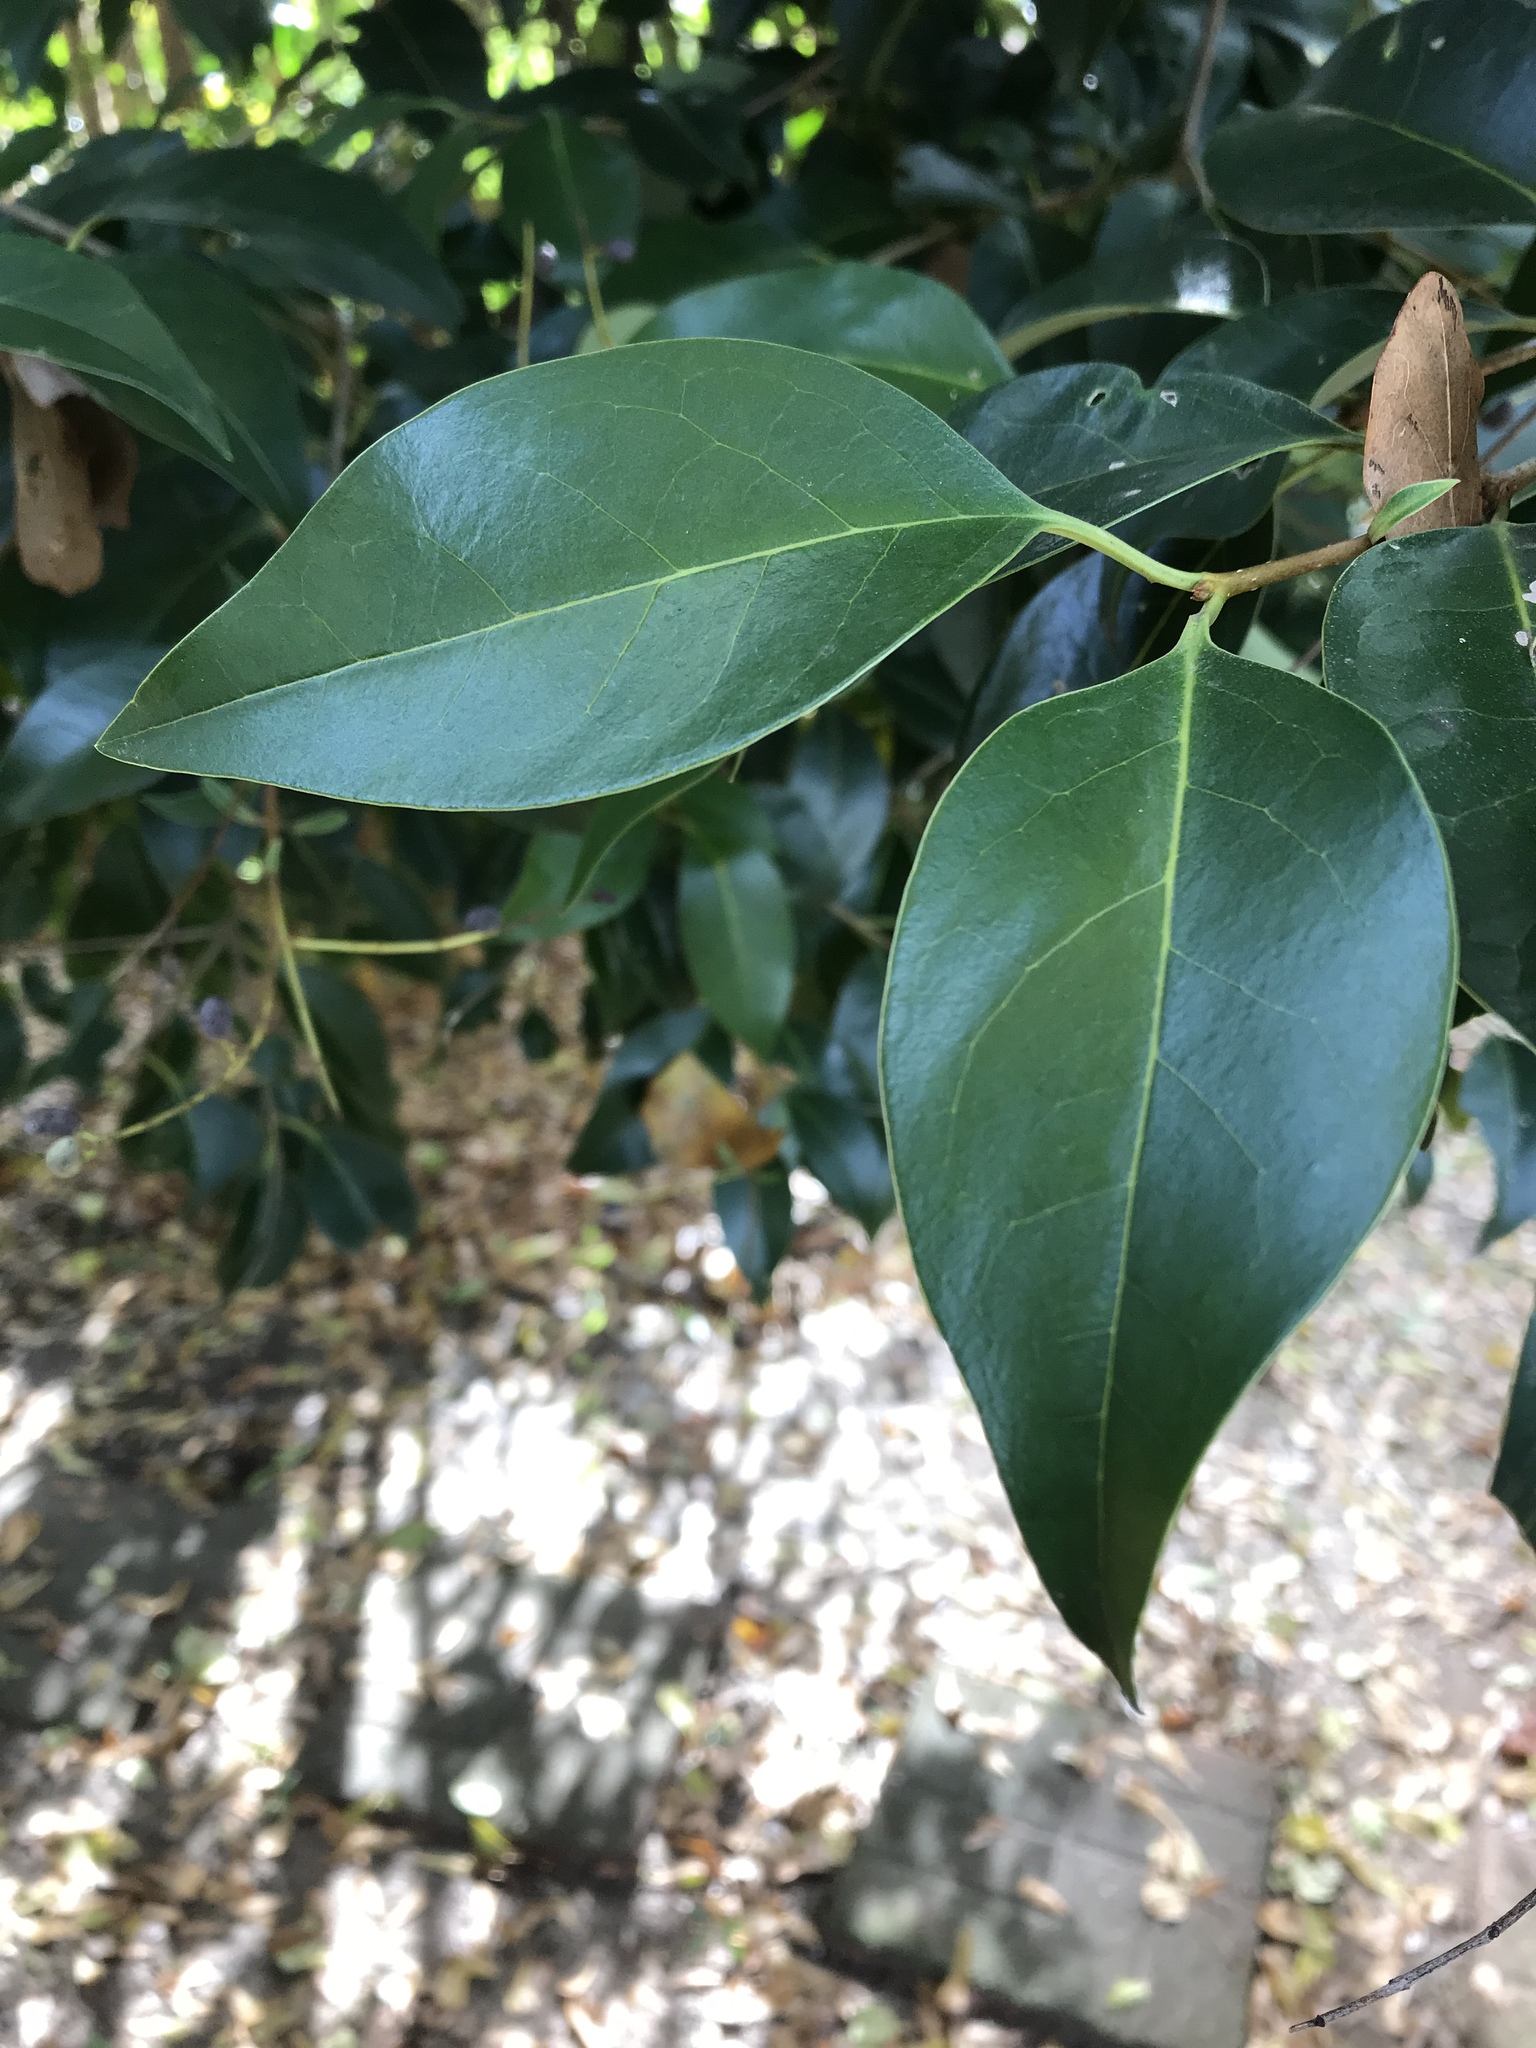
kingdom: Plantae
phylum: Tracheophyta
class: Magnoliopsida
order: Lamiales
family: Oleaceae
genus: Ligustrum
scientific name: Ligustrum lucidum
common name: Glossy privet
